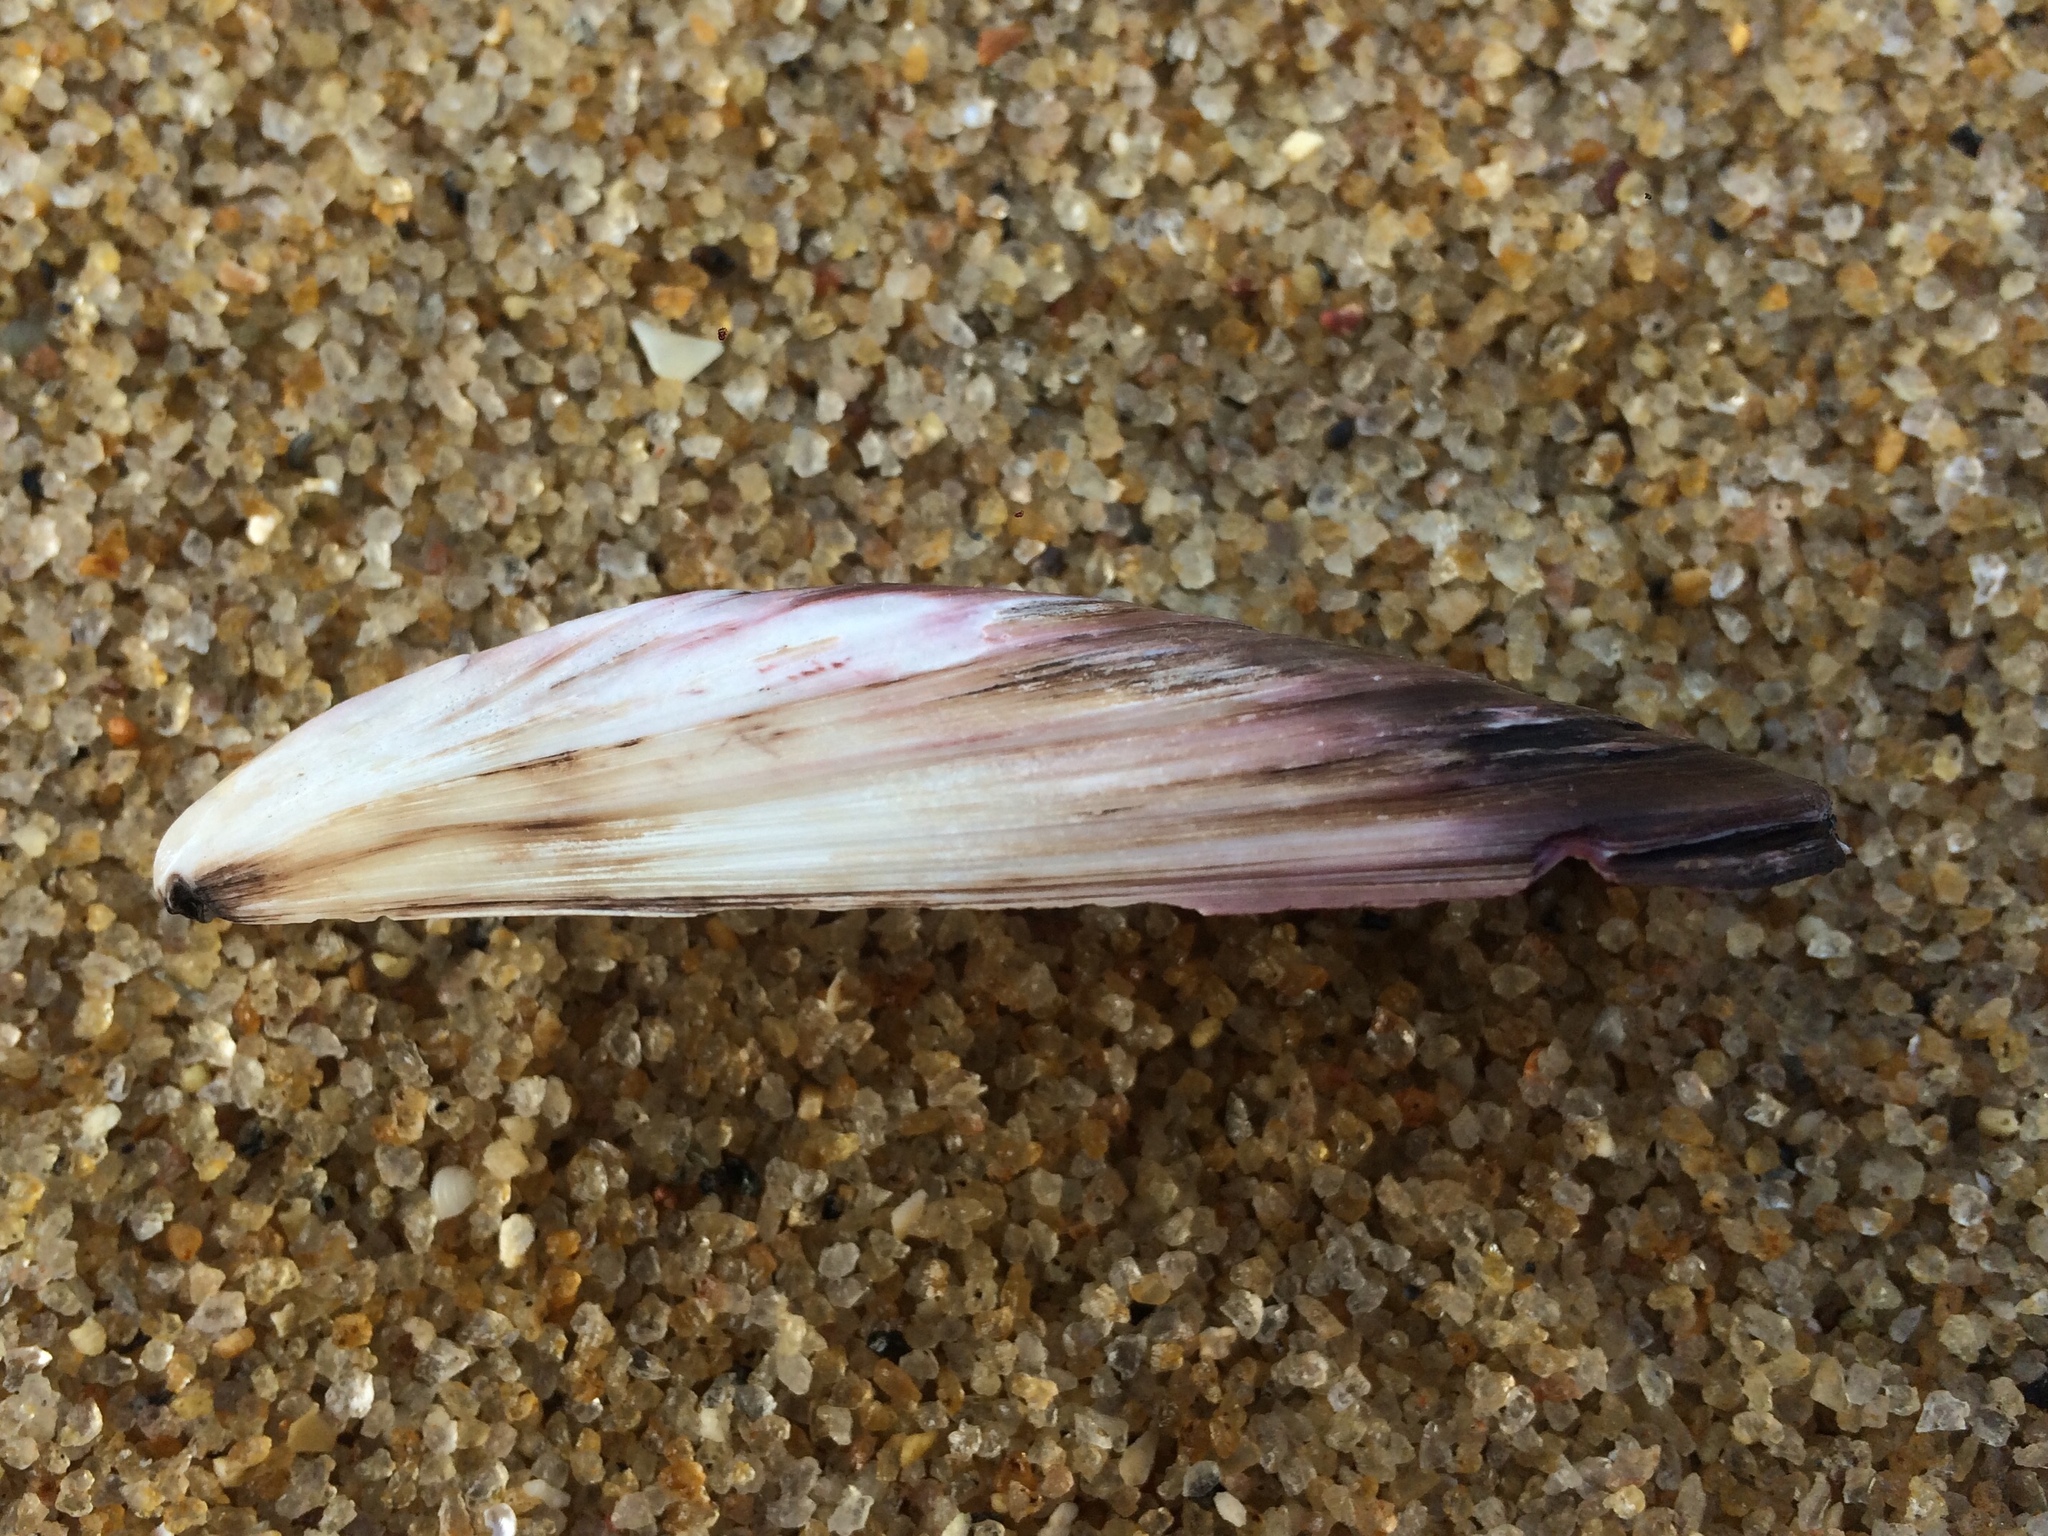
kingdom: Animalia
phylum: Mollusca
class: Bivalvia
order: Mytilida
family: Mytilidae
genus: Perna
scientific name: Perna perna
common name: Mexilhao mussel
